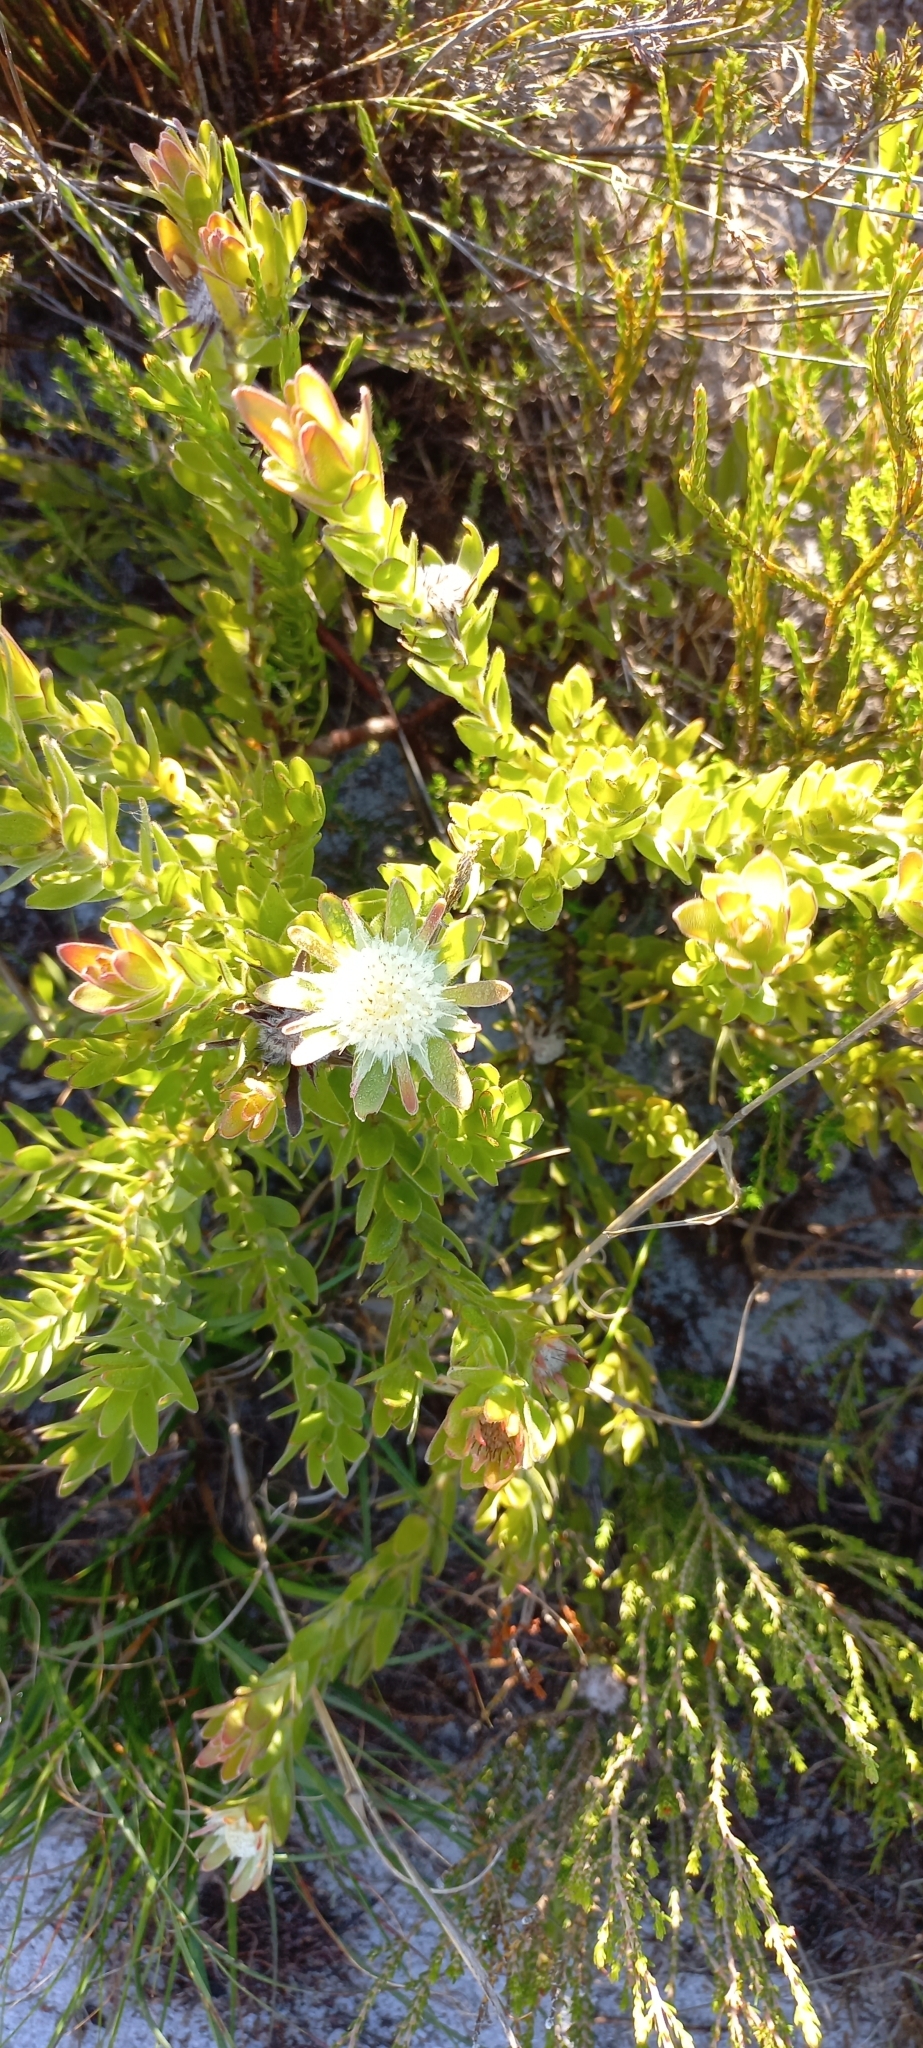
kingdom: Plantae
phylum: Tracheophyta
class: Magnoliopsida
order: Proteales
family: Proteaceae
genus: Diastella
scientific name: Diastella thymelaeoides
